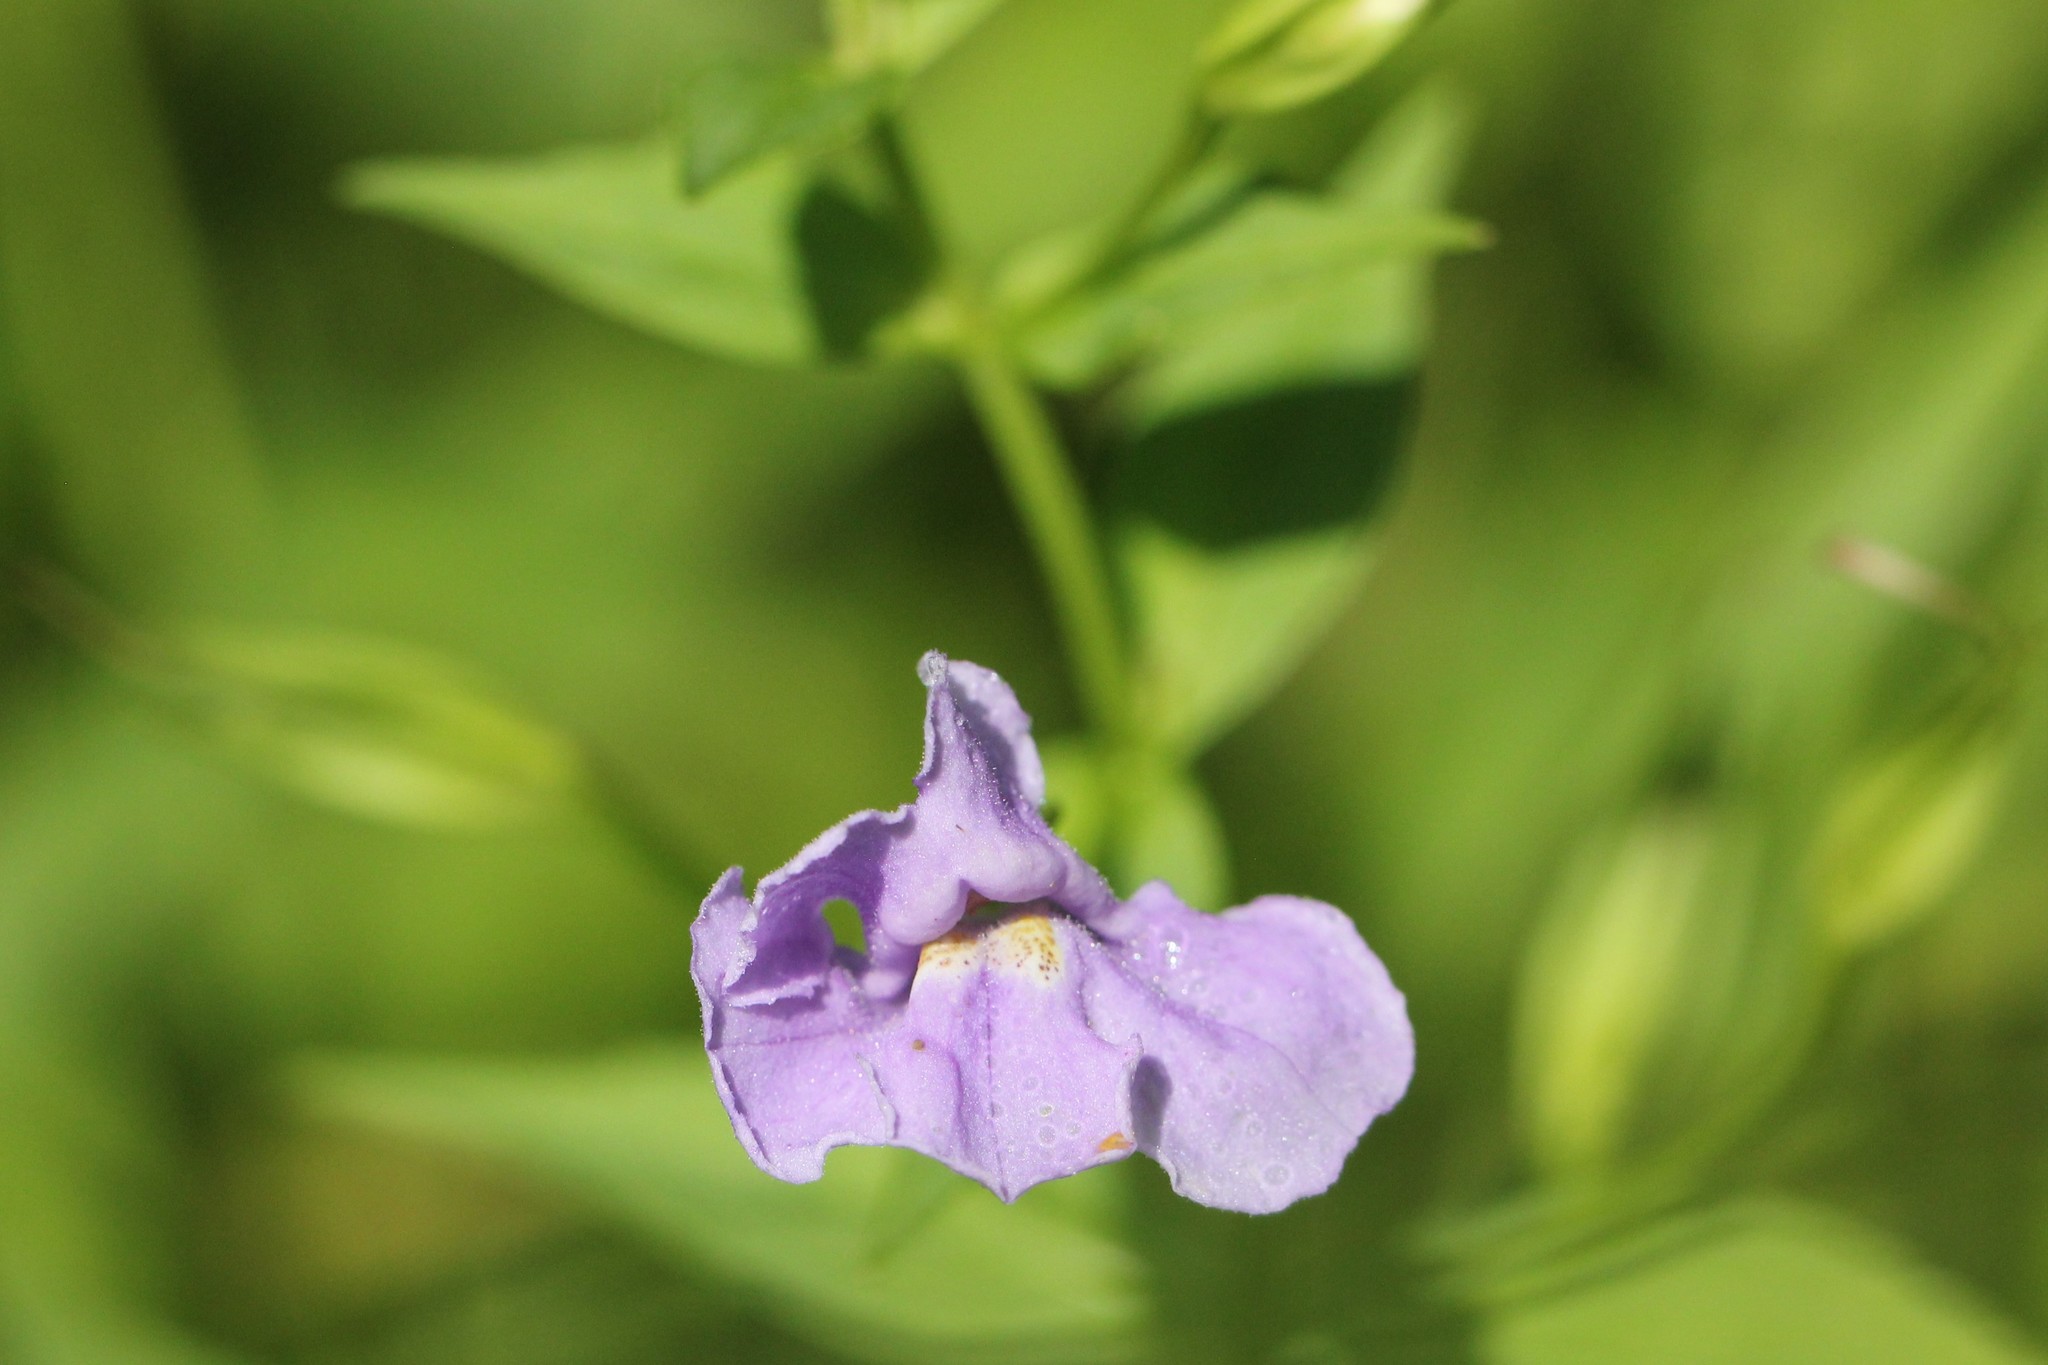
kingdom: Plantae
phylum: Tracheophyta
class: Magnoliopsida
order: Lamiales
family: Phrymaceae
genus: Mimulus
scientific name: Mimulus ringens
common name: Allegheny monkeyflower
